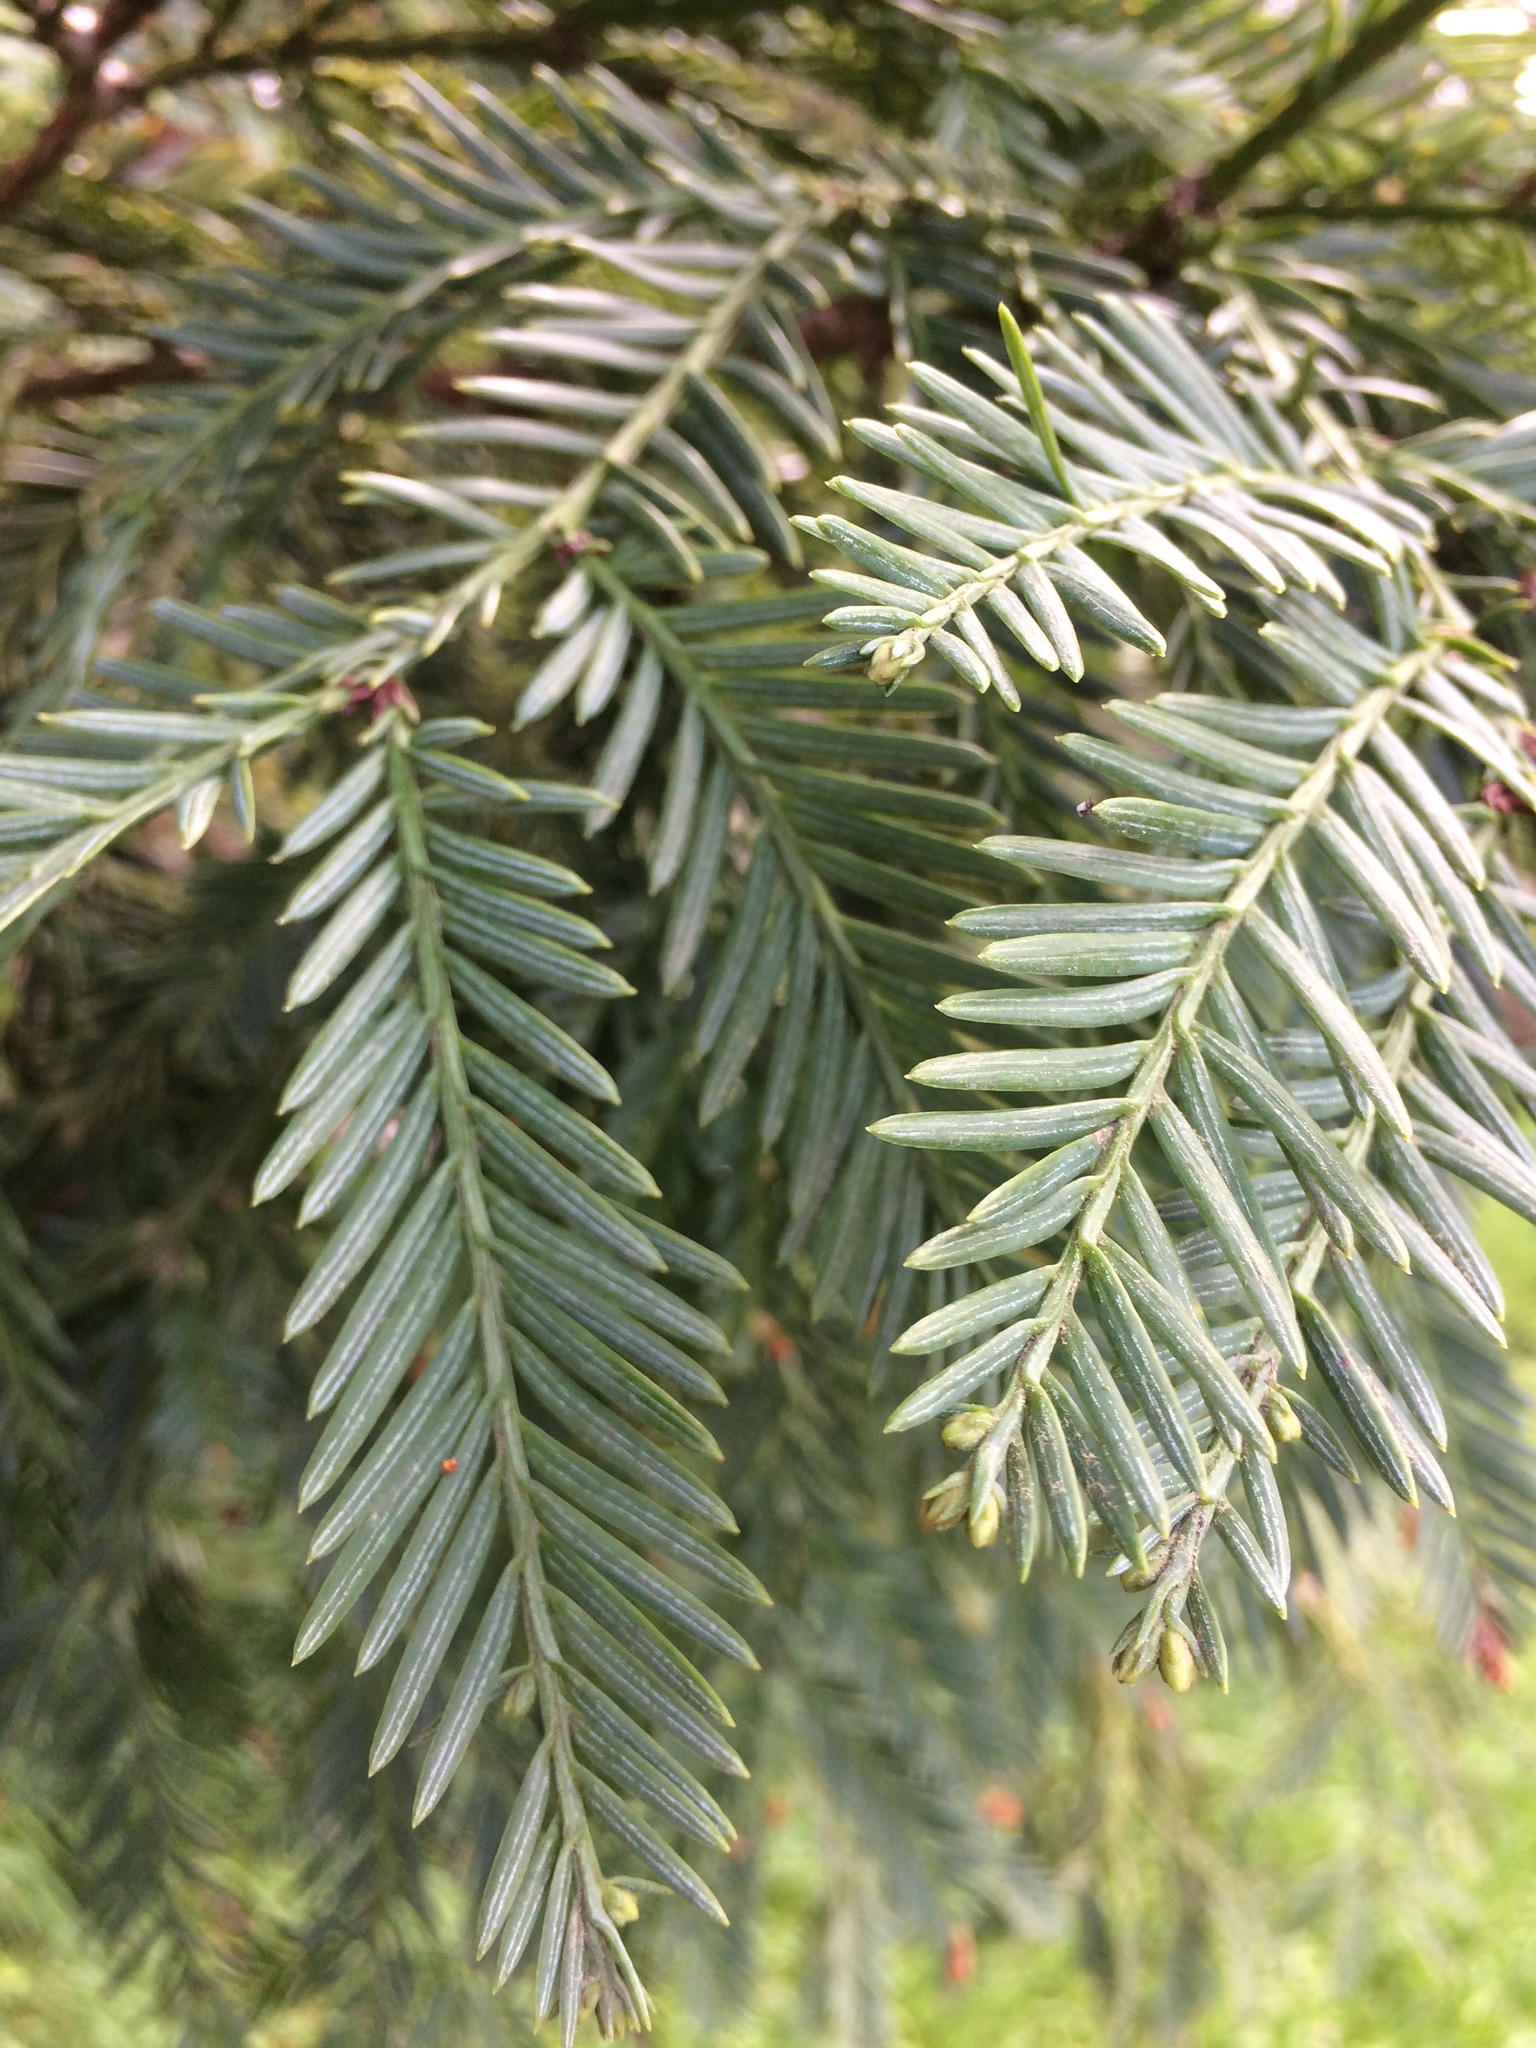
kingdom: Plantae
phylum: Tracheophyta
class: Pinopsida
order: Pinales
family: Cupressaceae
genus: Sequoia
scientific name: Sequoia sempervirens
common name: Coast redwood
